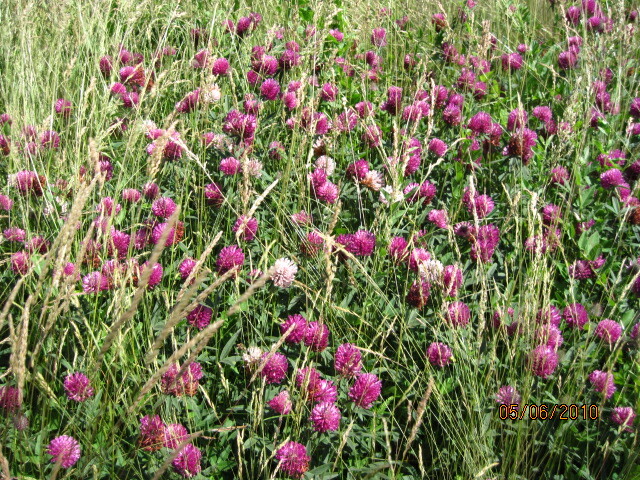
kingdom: Plantae
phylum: Tracheophyta
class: Magnoliopsida
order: Fabales
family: Fabaceae
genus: Trifolium
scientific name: Trifolium alpestre
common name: Owl-head clover
